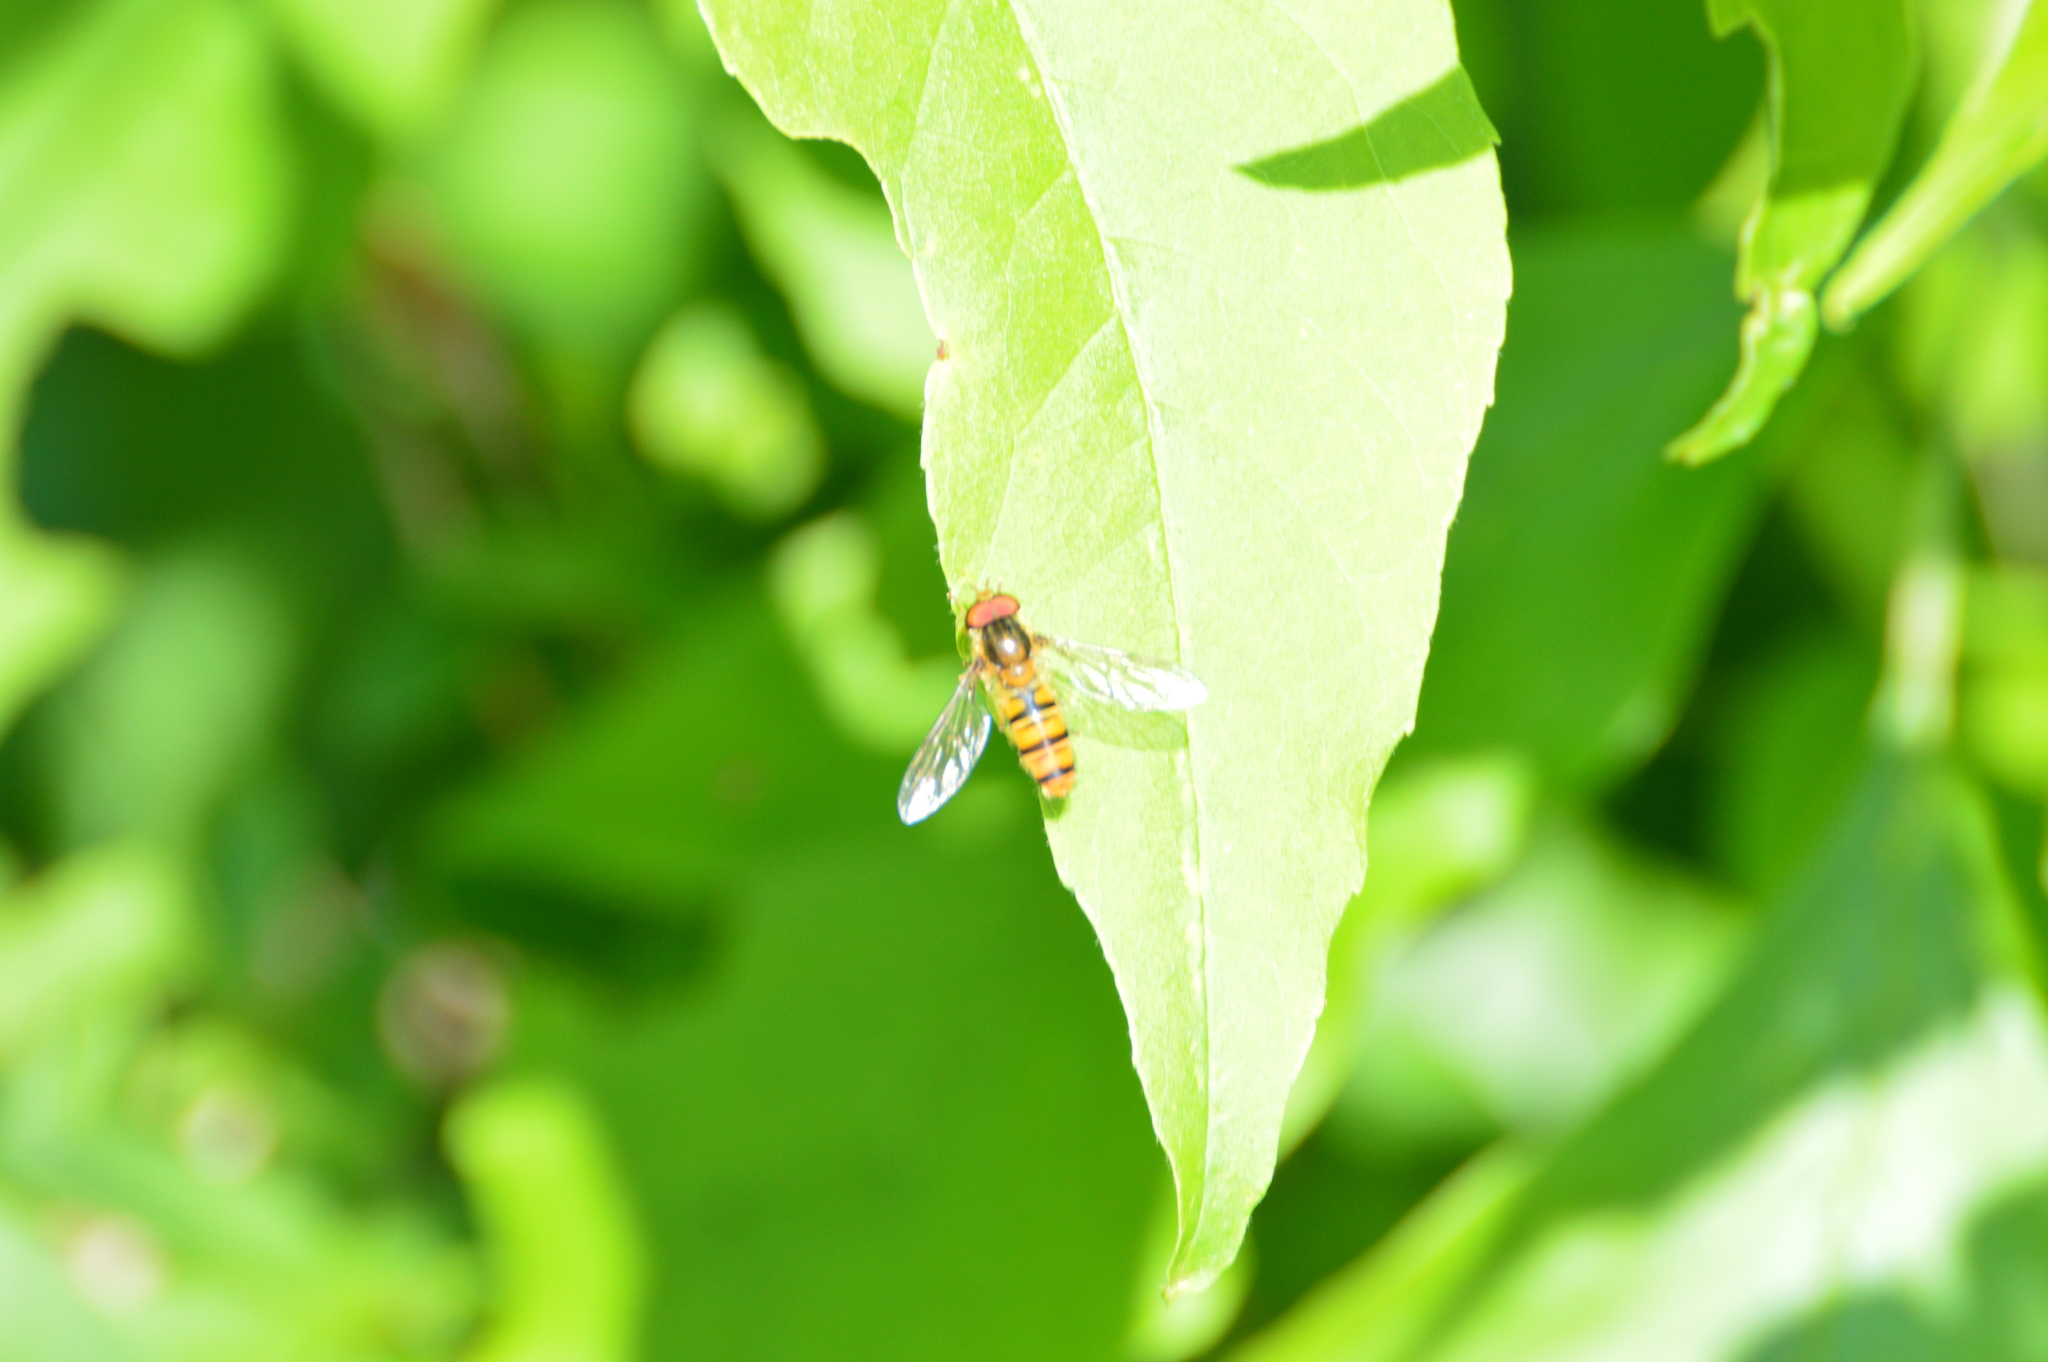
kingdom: Animalia
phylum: Arthropoda
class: Insecta
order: Diptera
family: Syrphidae
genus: Episyrphus
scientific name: Episyrphus balteatus
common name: Marmalade hoverfly
